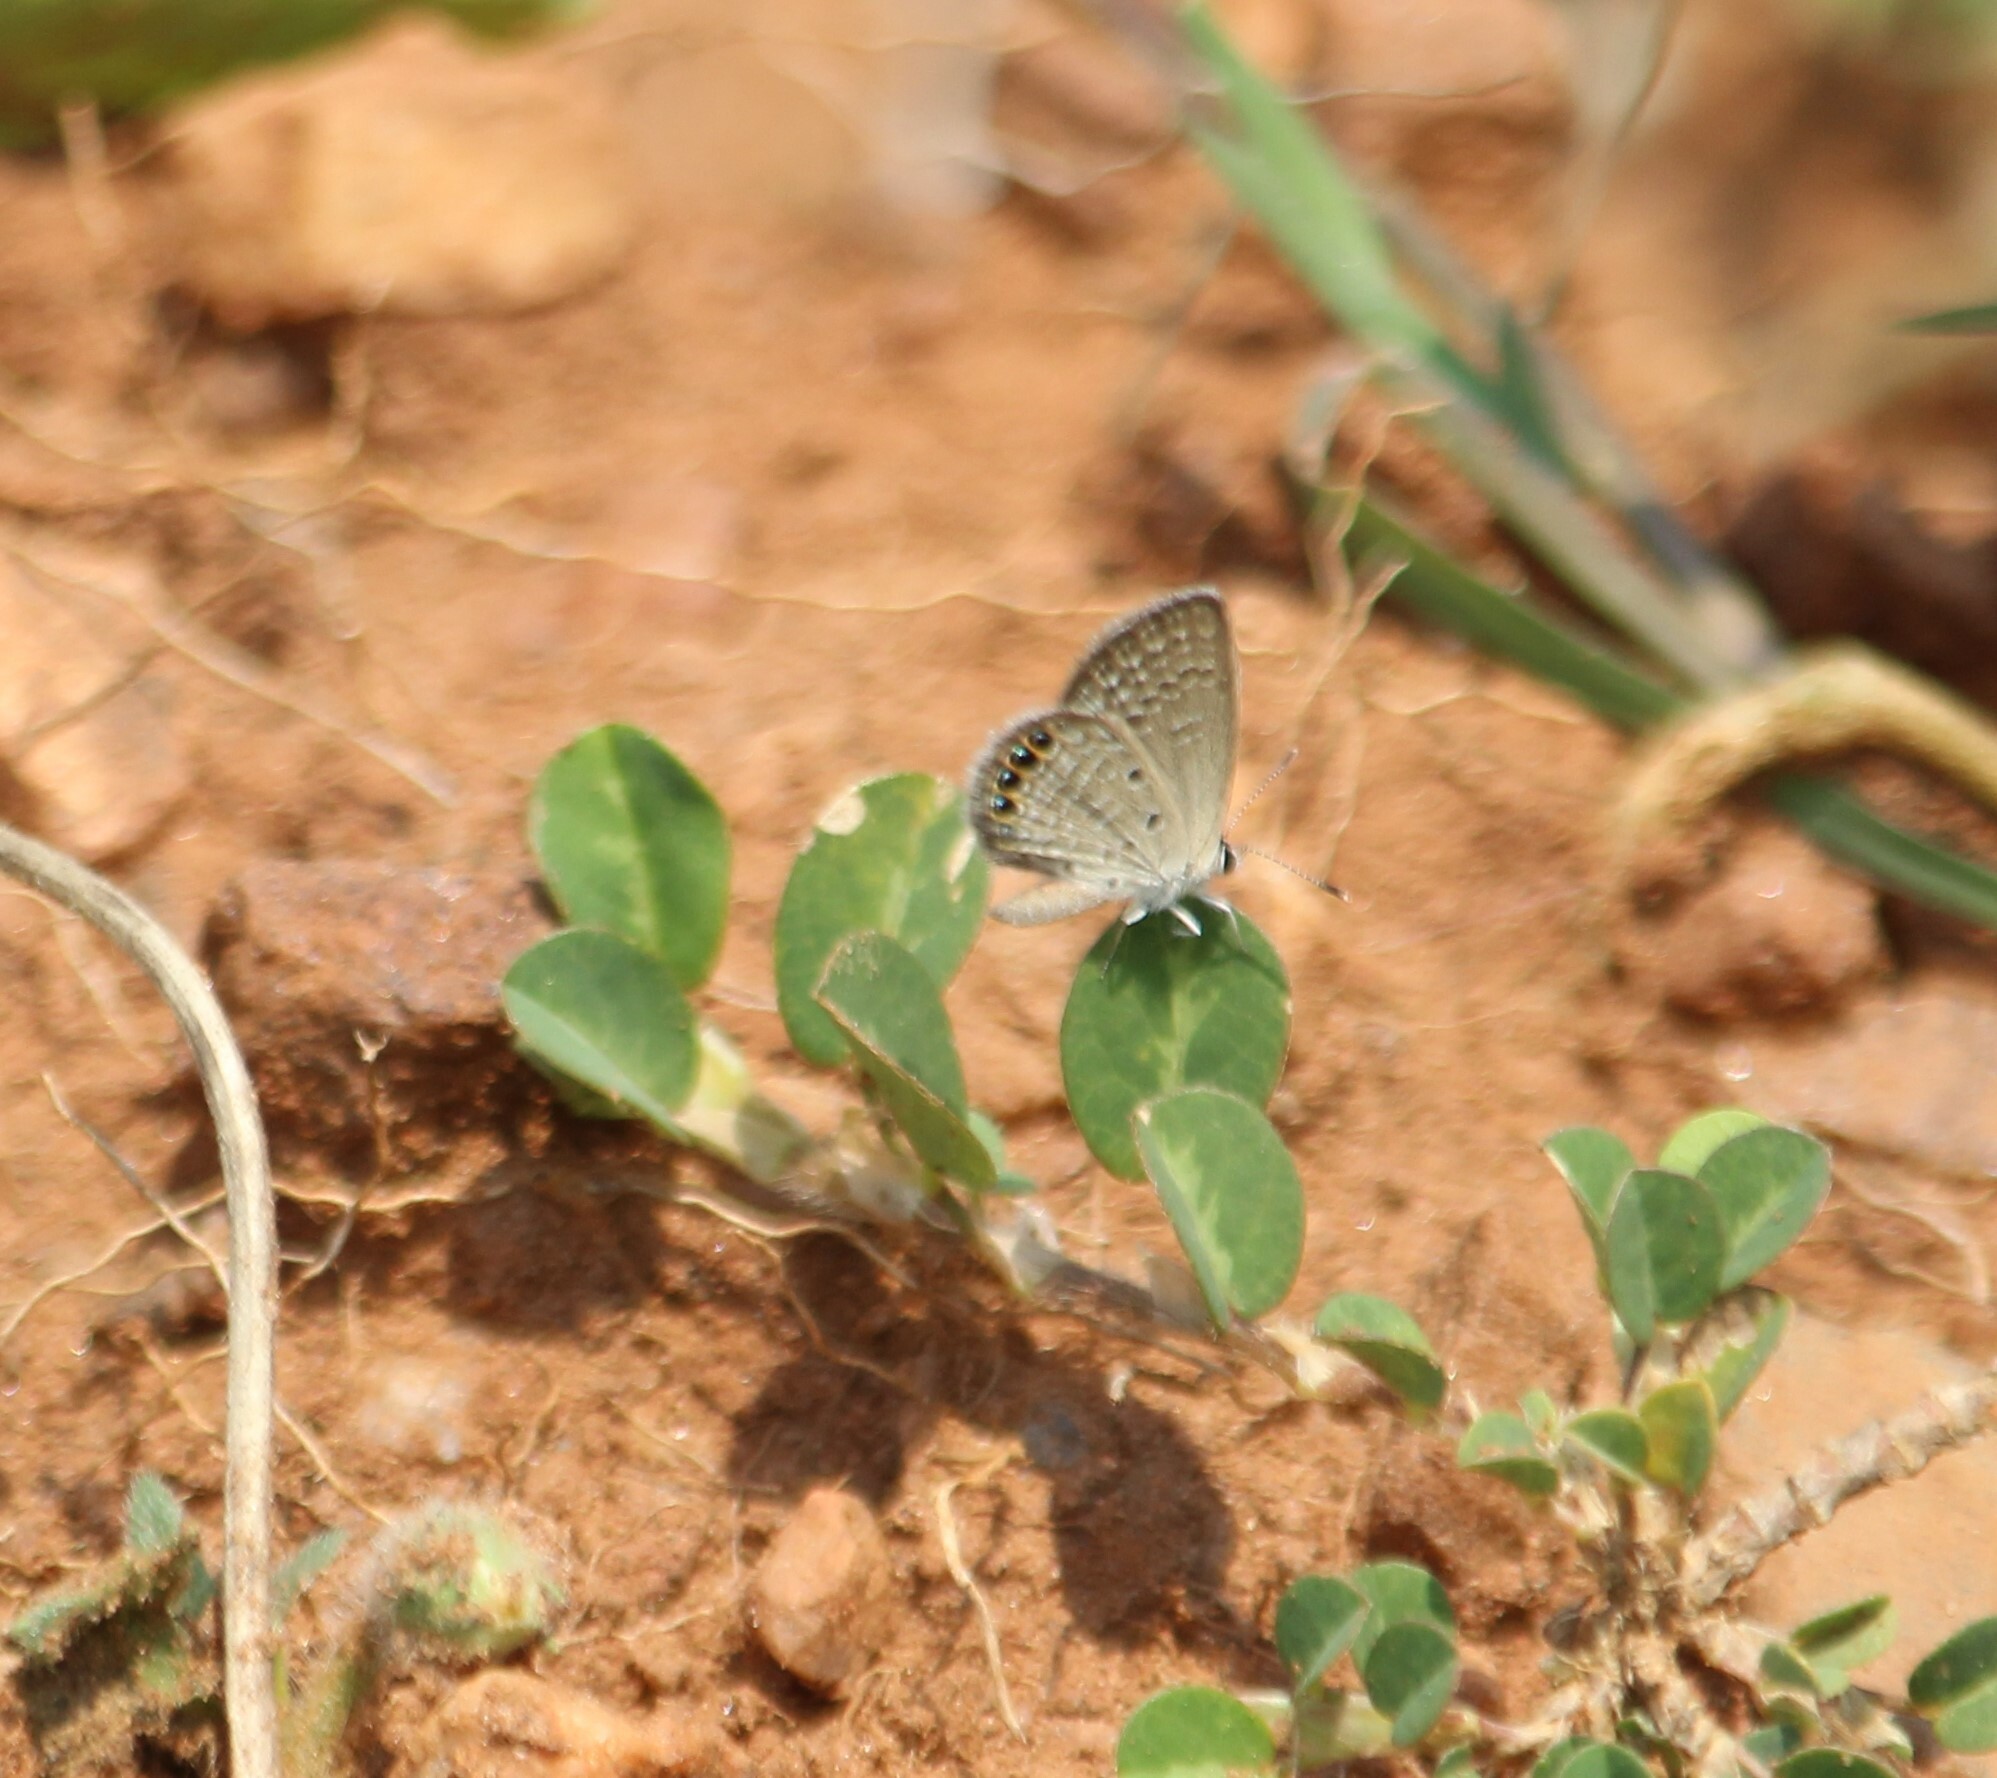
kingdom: Animalia
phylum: Arthropoda
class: Insecta
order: Lepidoptera
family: Lycaenidae
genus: Freyeria
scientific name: Freyeria putli
